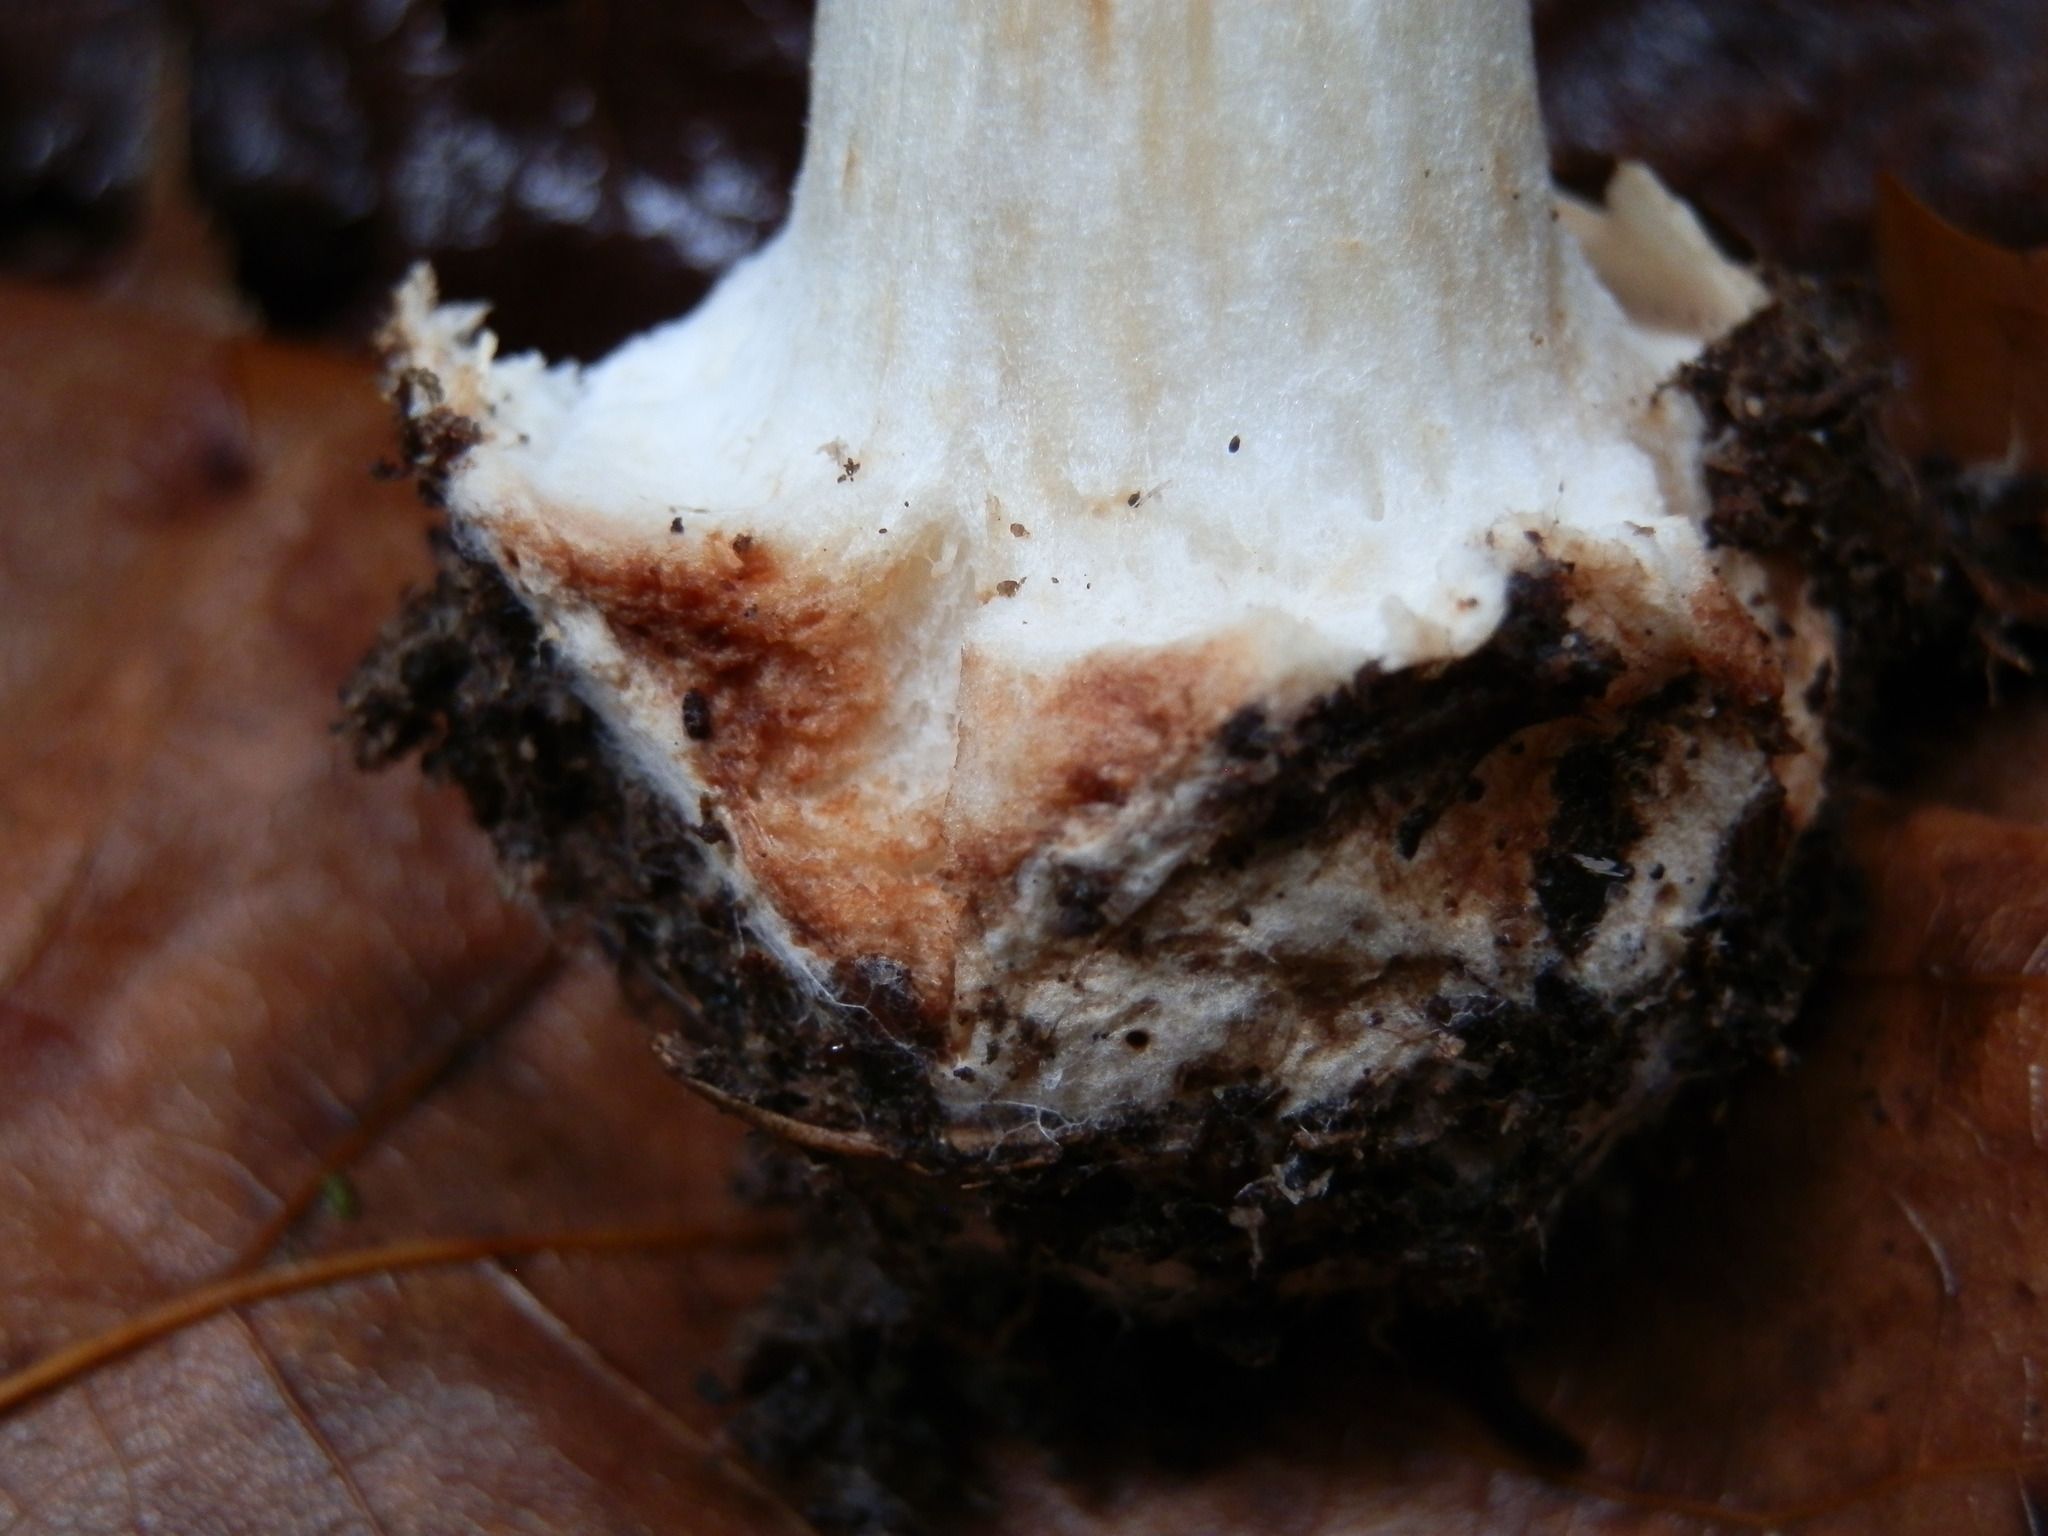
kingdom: Fungi
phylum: Basidiomycota
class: Agaricomycetes
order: Agaricales
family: Amanitaceae
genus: Amanita
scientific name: Amanita brunnescens
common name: Brown american star-footed amanita
